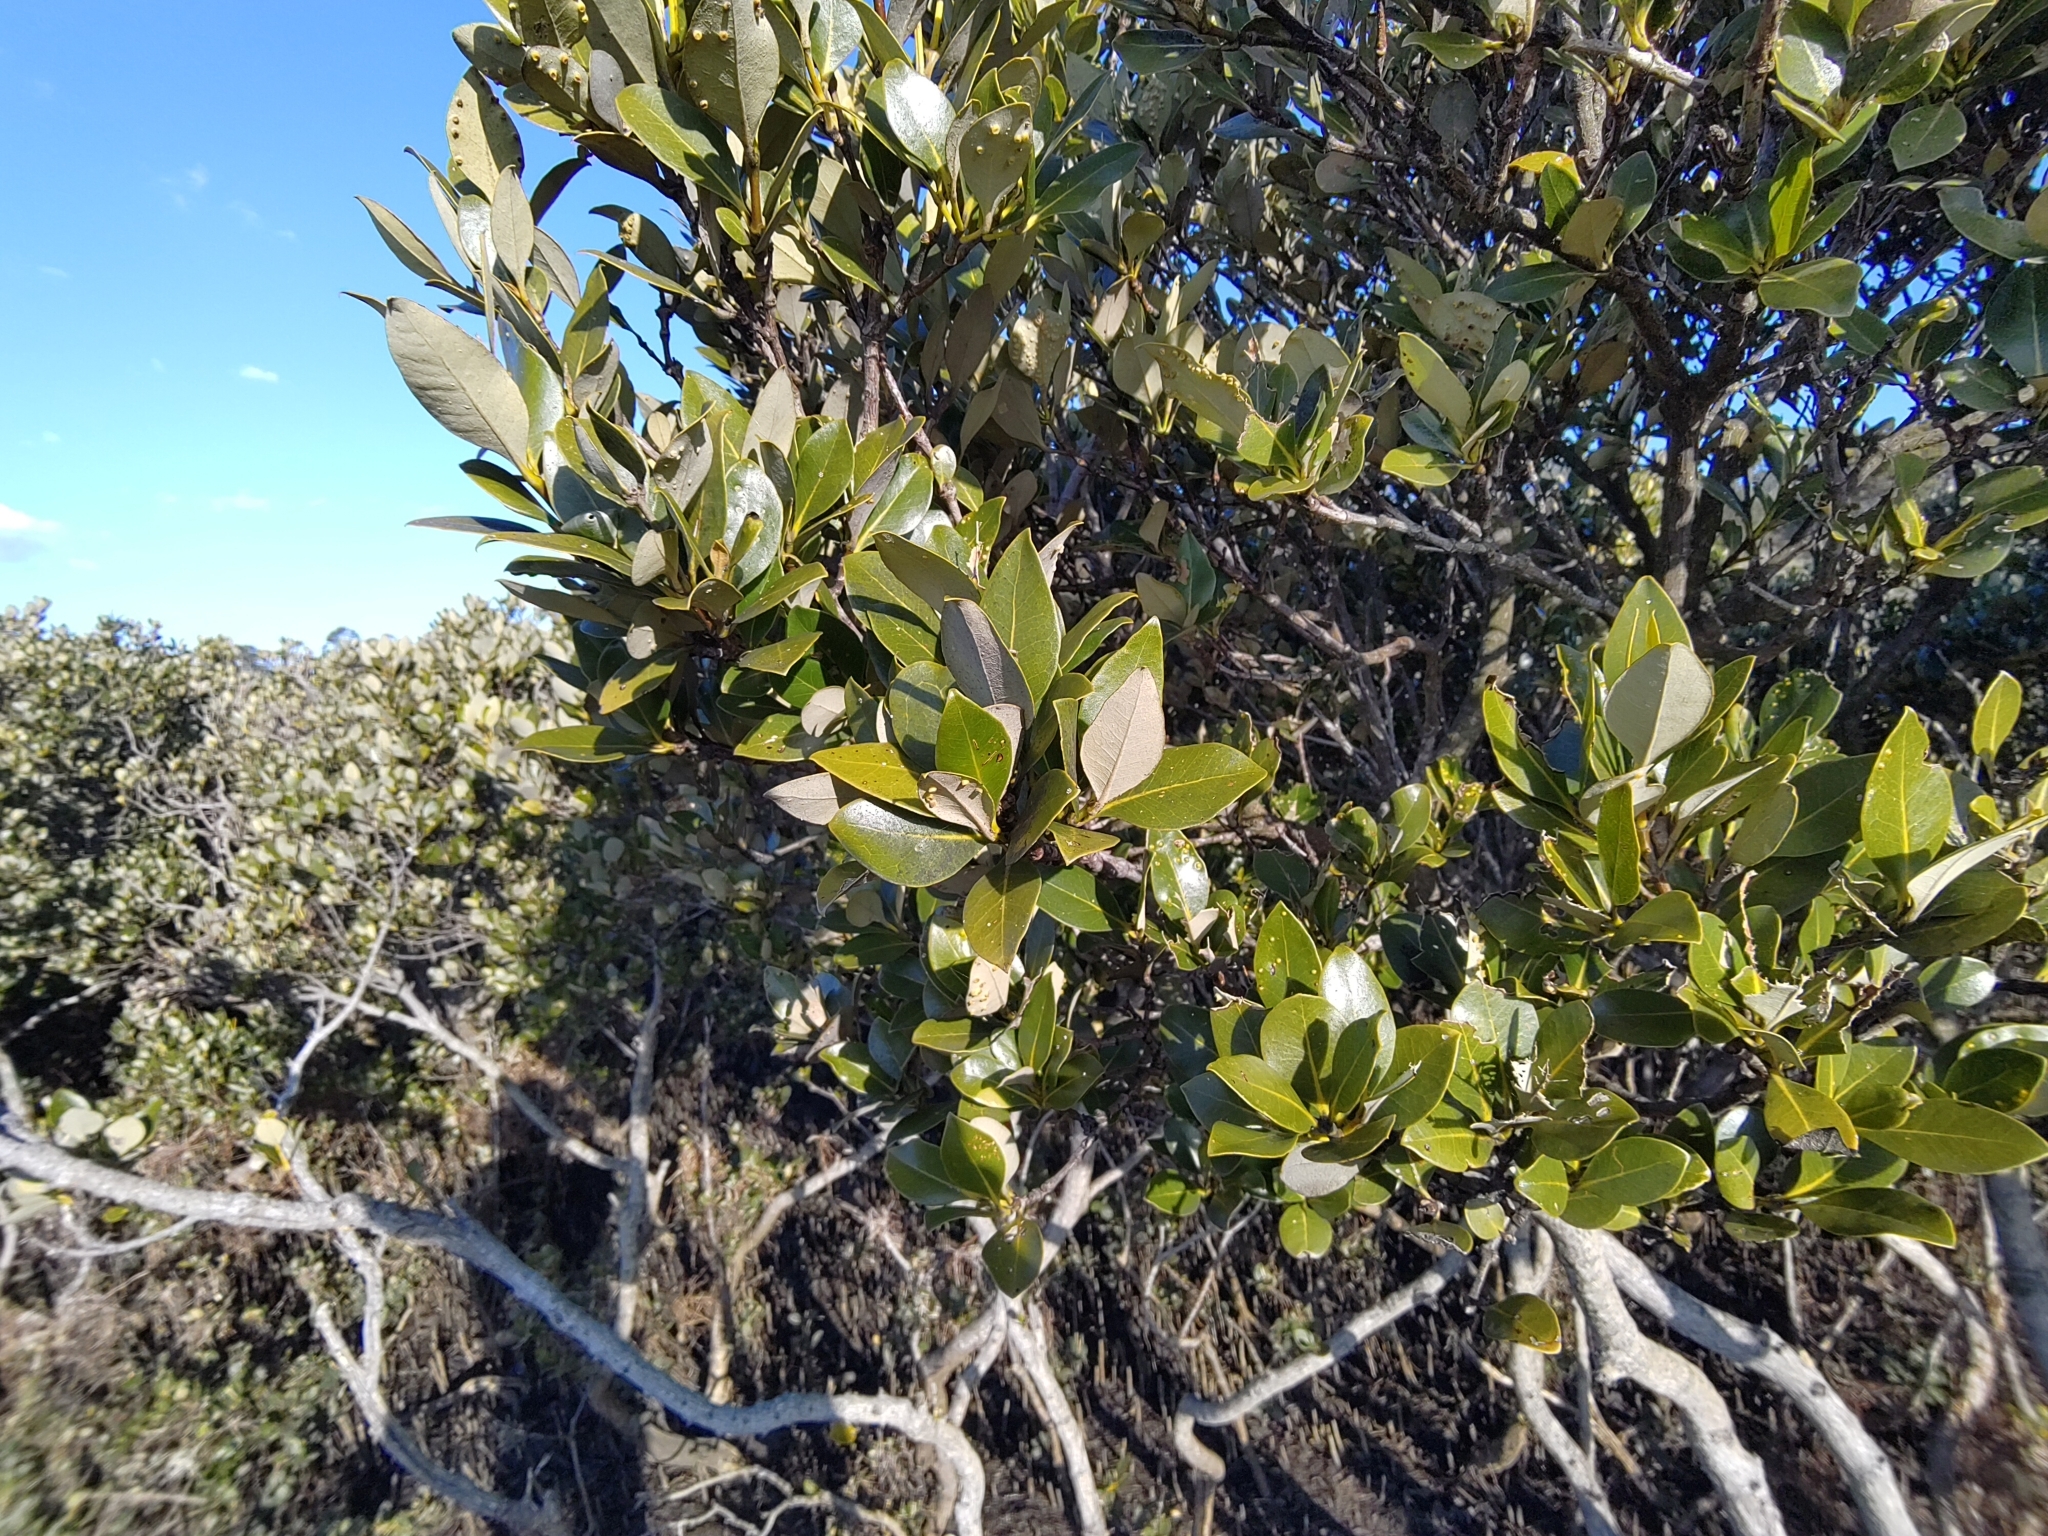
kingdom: Plantae
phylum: Tracheophyta
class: Magnoliopsida
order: Lamiales
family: Acanthaceae
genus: Avicennia
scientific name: Avicennia marina
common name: Gray mangrove
